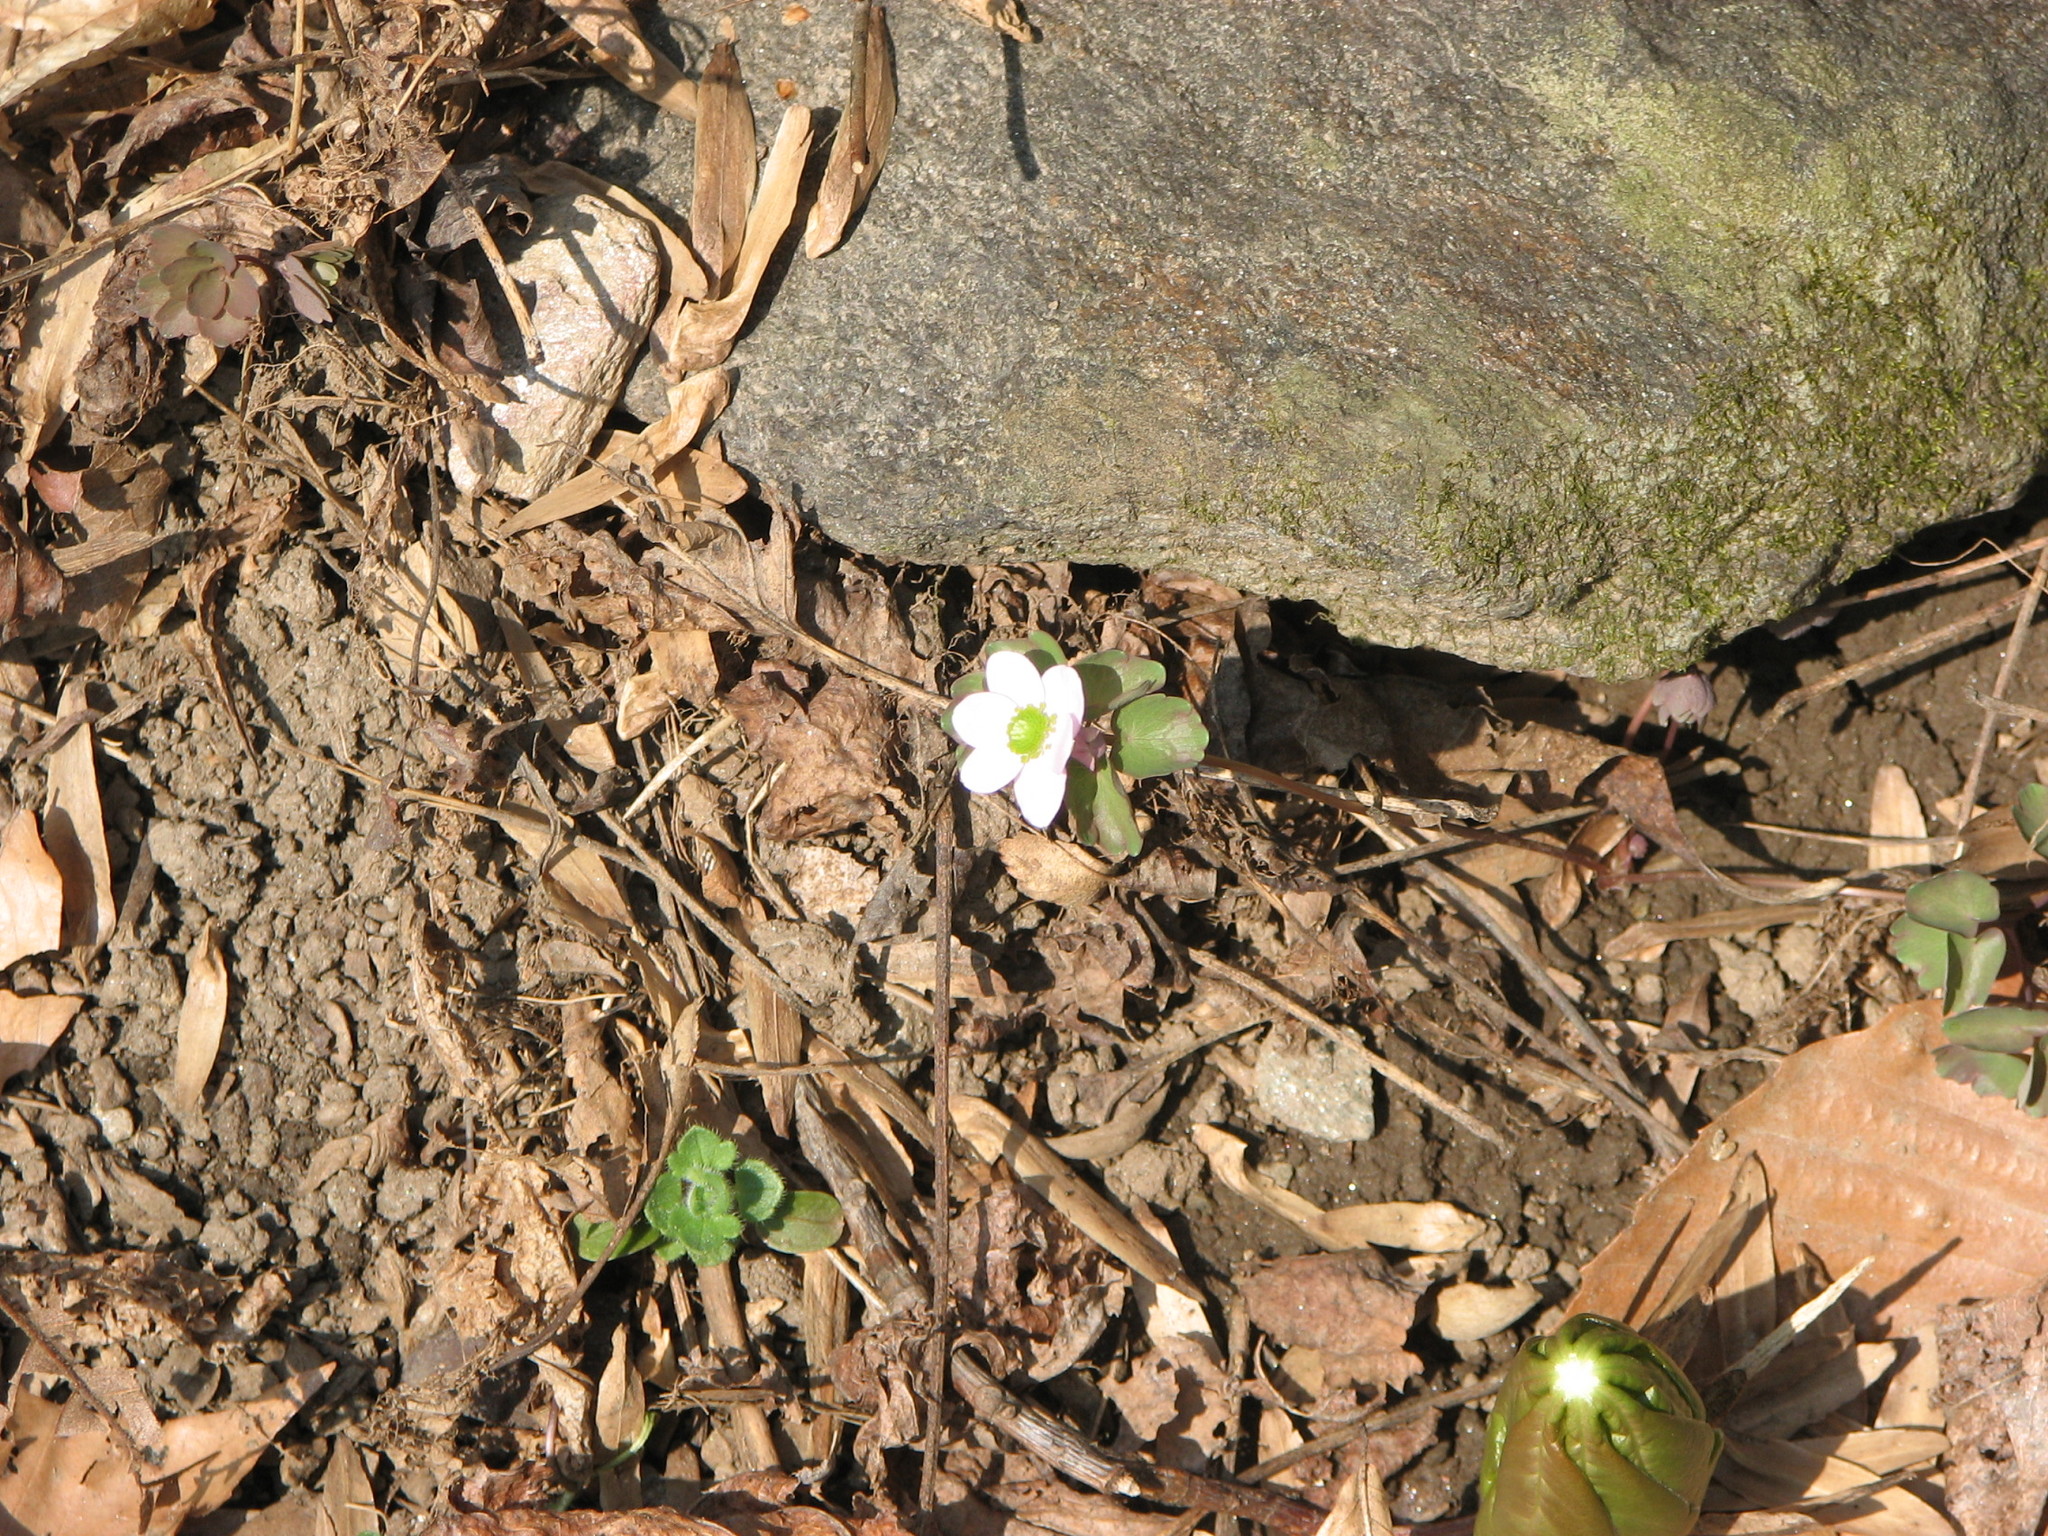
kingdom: Plantae
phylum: Tracheophyta
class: Magnoliopsida
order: Ranunculales
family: Ranunculaceae
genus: Thalictrum
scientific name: Thalictrum thalictroides
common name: Rue-anemone
